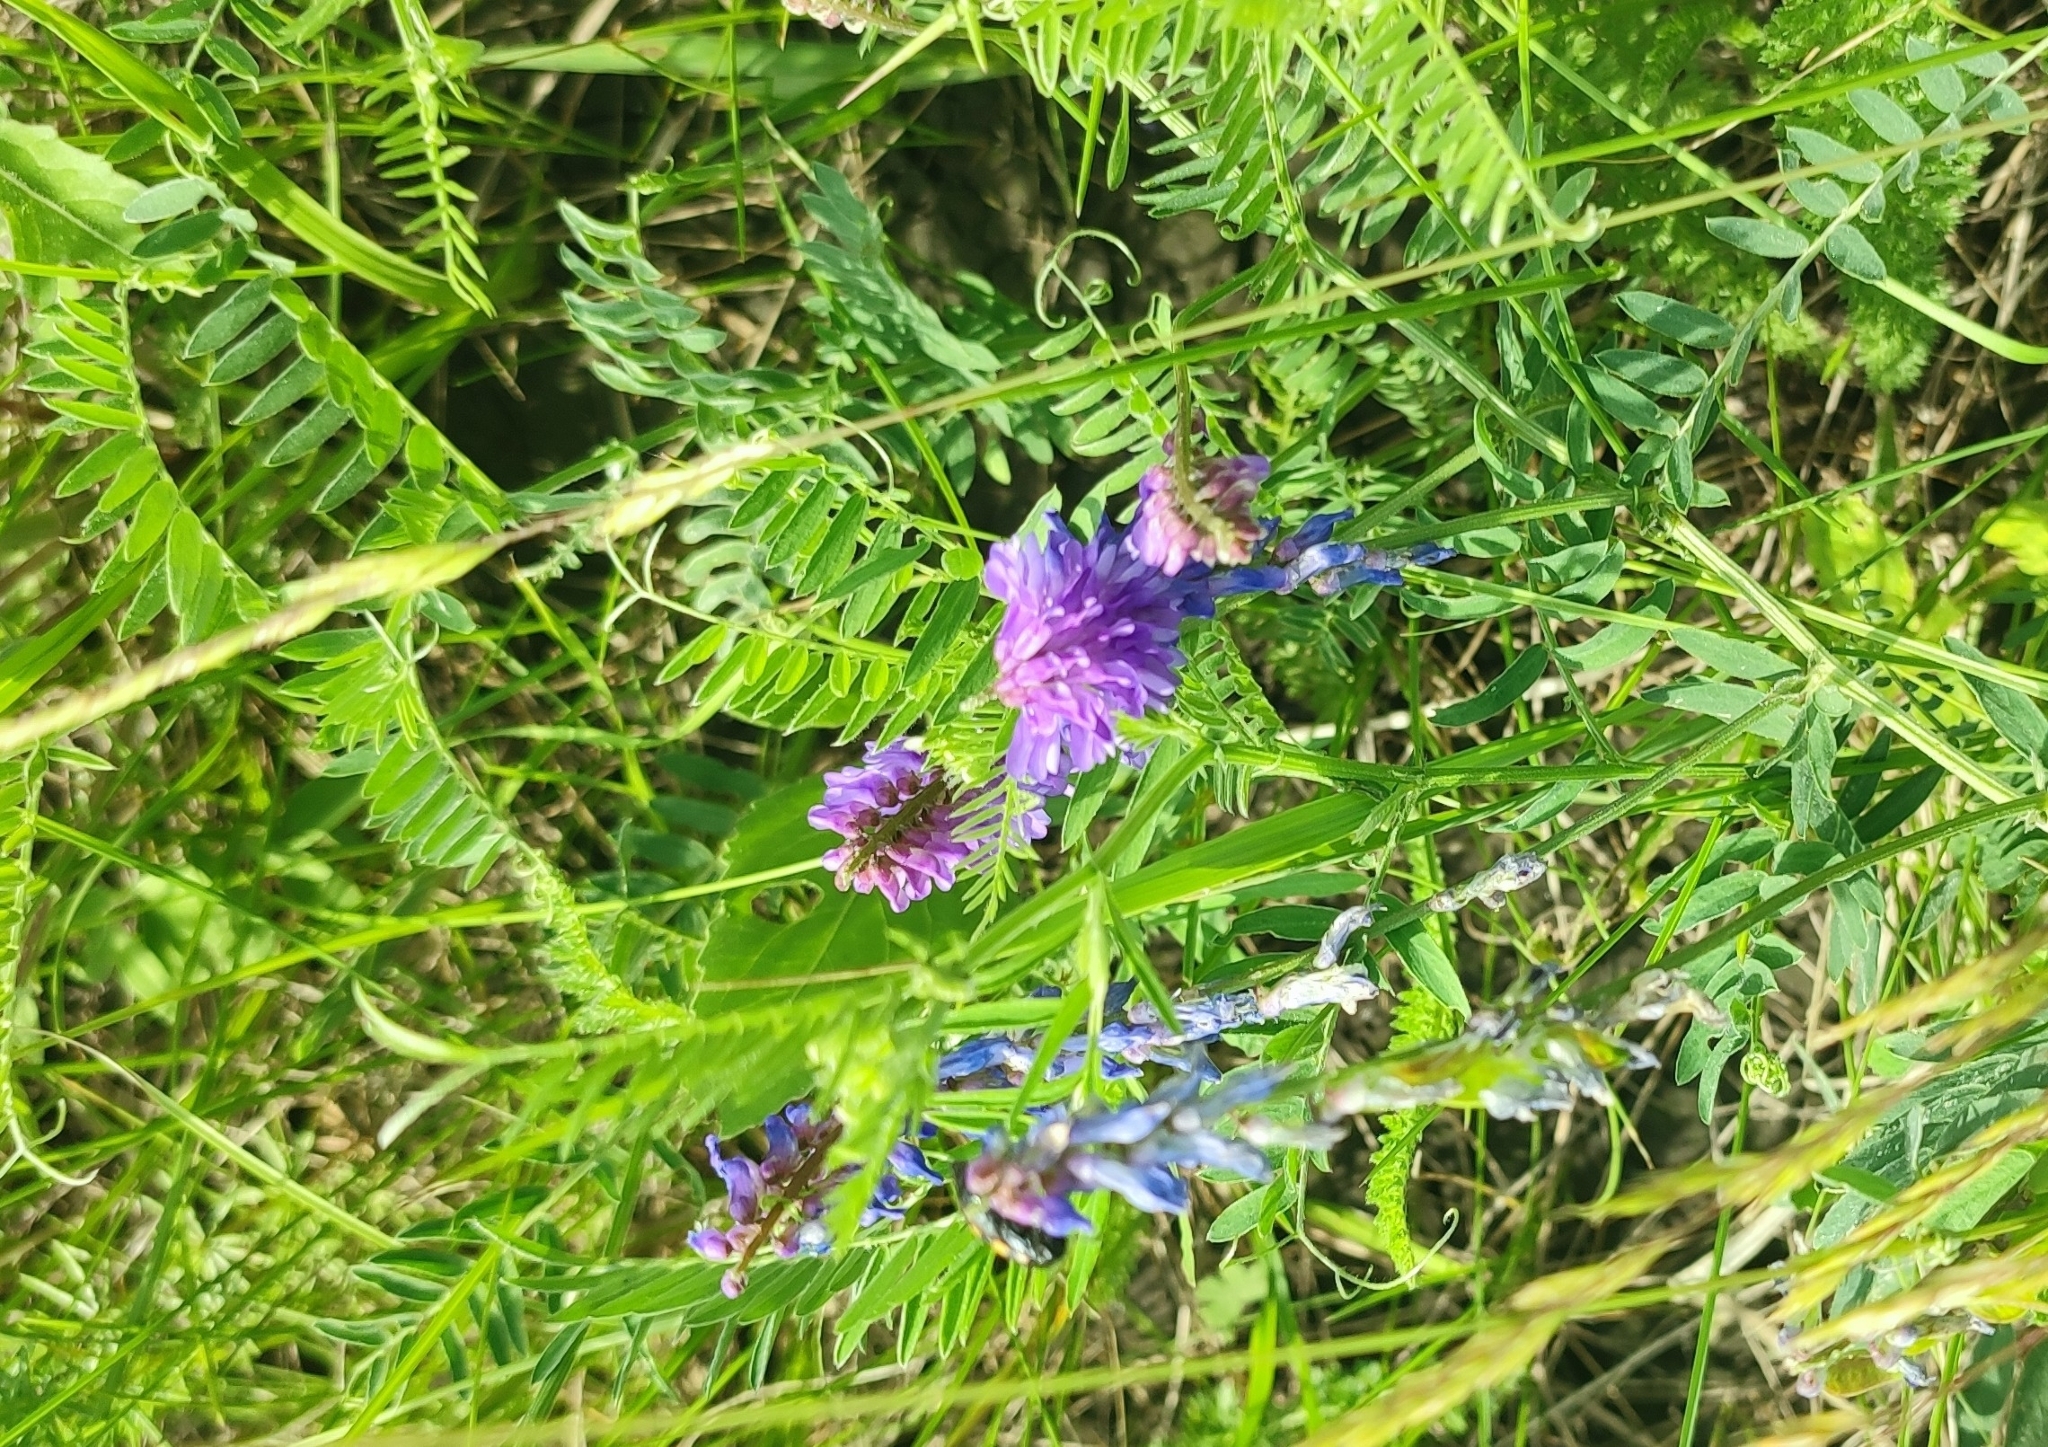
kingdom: Plantae
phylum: Tracheophyta
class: Magnoliopsida
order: Fabales
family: Fabaceae
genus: Vicia
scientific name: Vicia cracca
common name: Bird vetch
